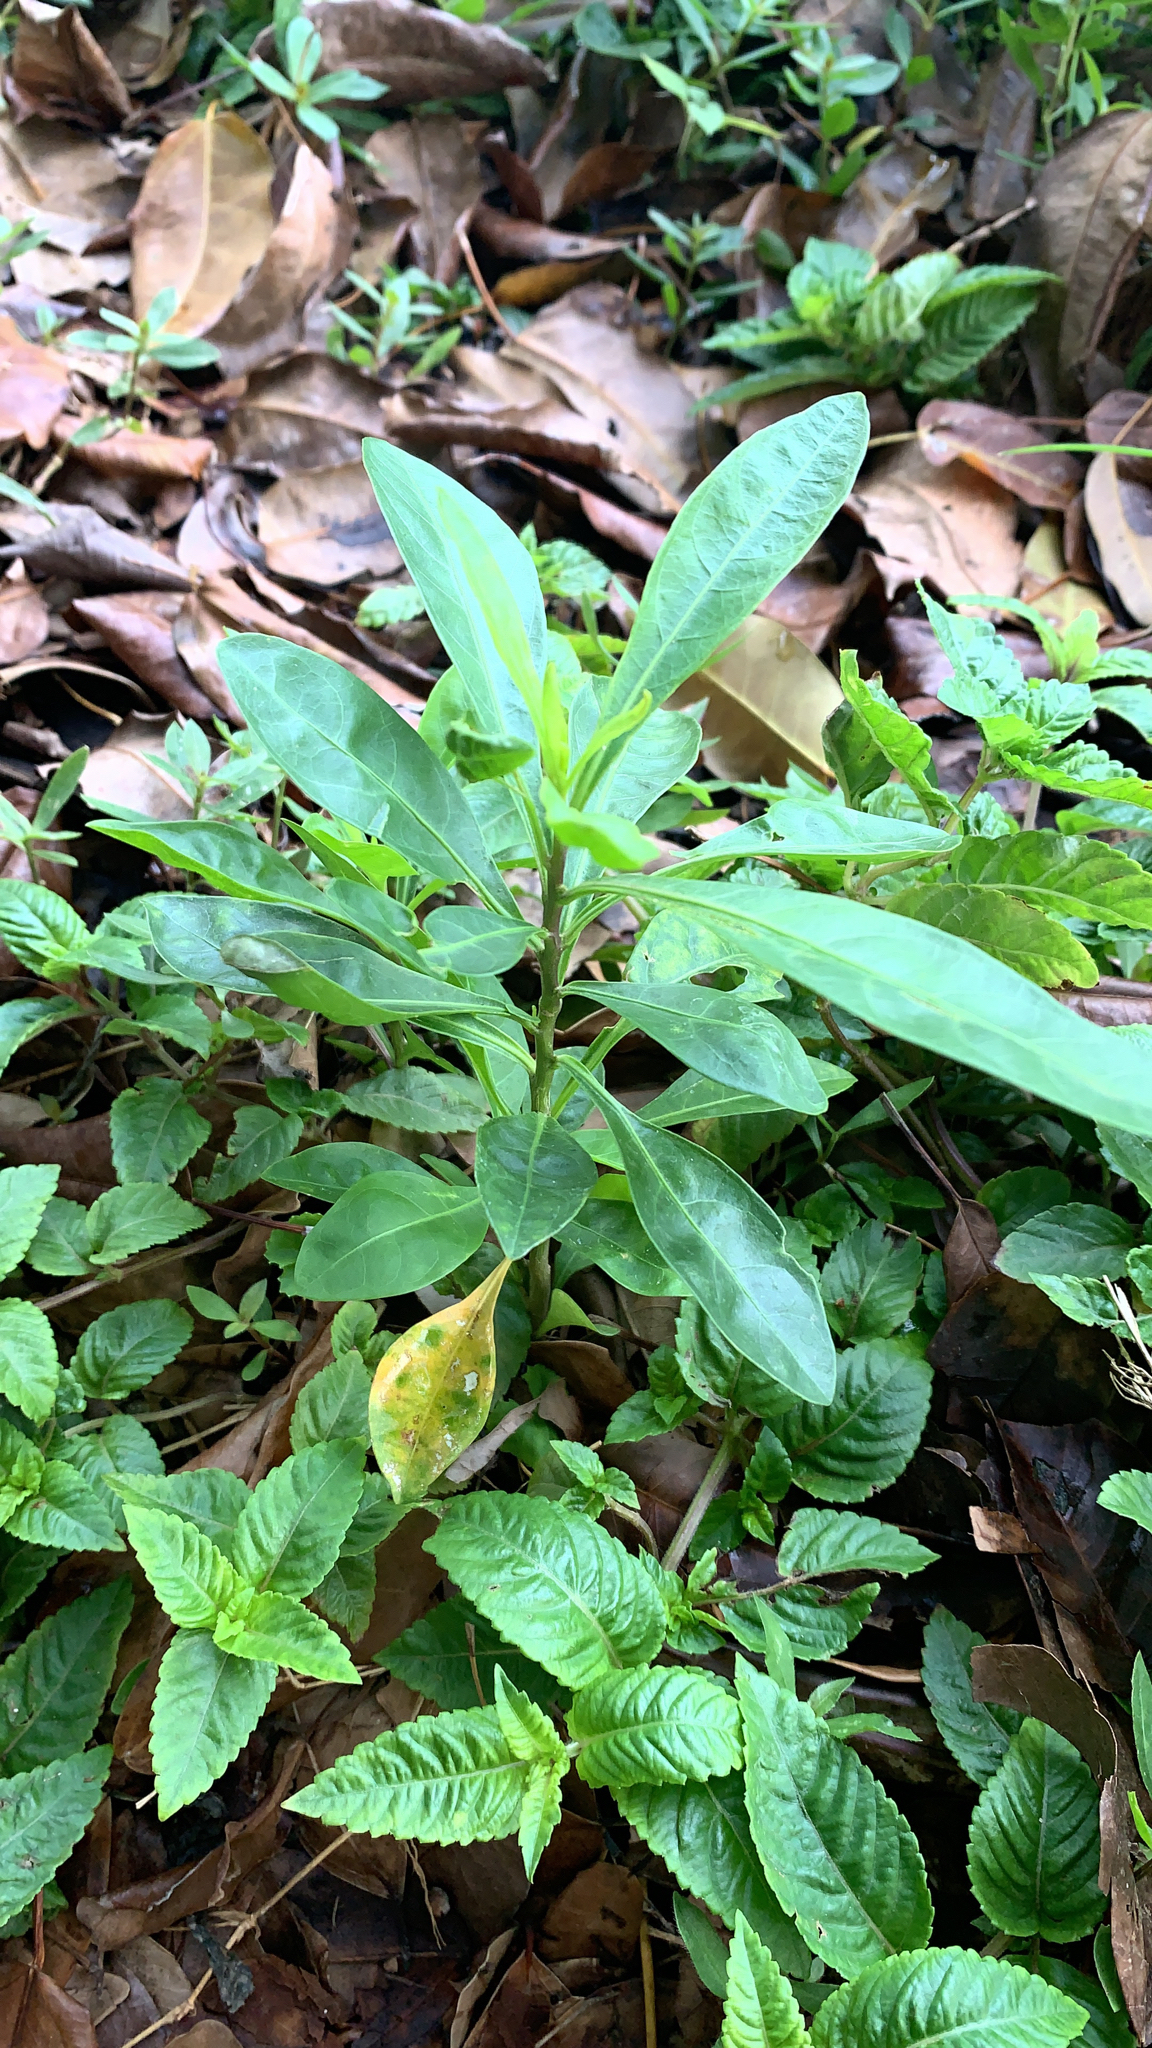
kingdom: Plantae
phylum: Tracheophyta
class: Magnoliopsida
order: Solanales
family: Solanaceae
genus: Solanum
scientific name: Solanum diphyllum
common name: Twoleaf nightshade
